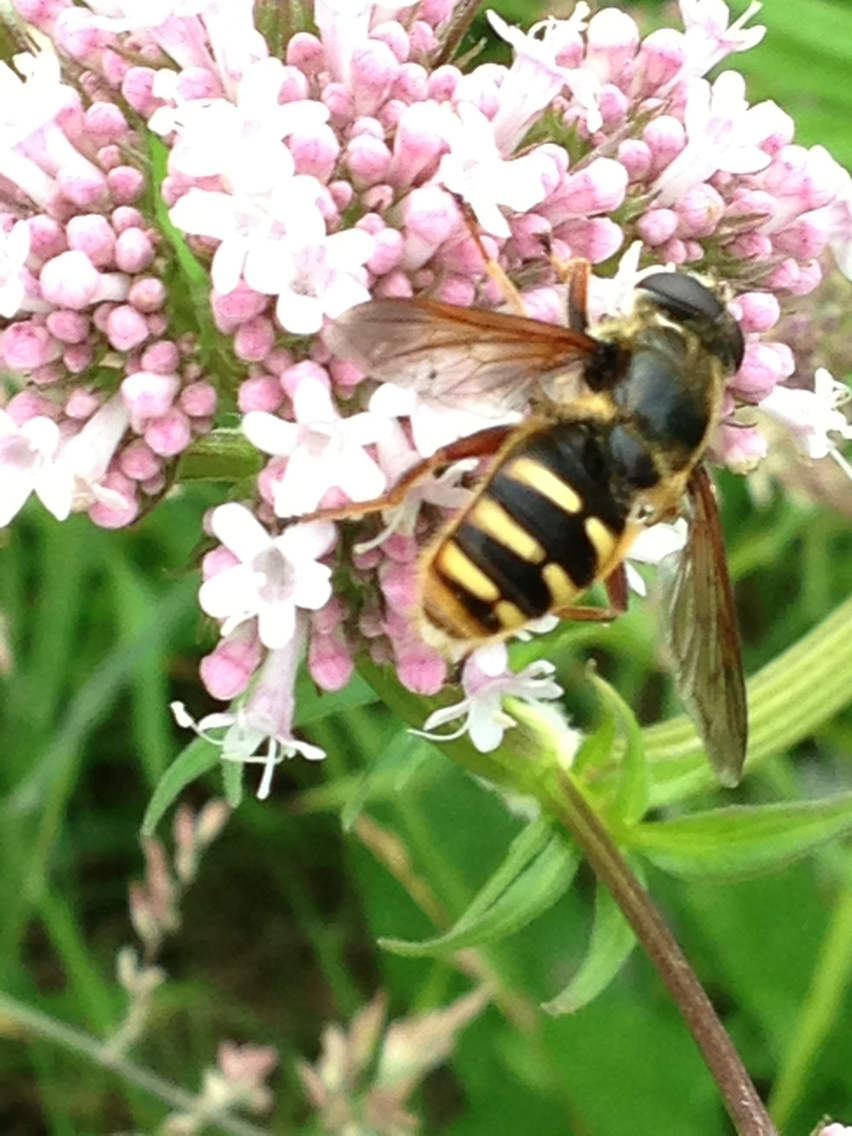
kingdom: Animalia
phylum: Arthropoda
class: Insecta
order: Diptera
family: Syrphidae
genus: Sericomyia
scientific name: Sericomyia silentis
